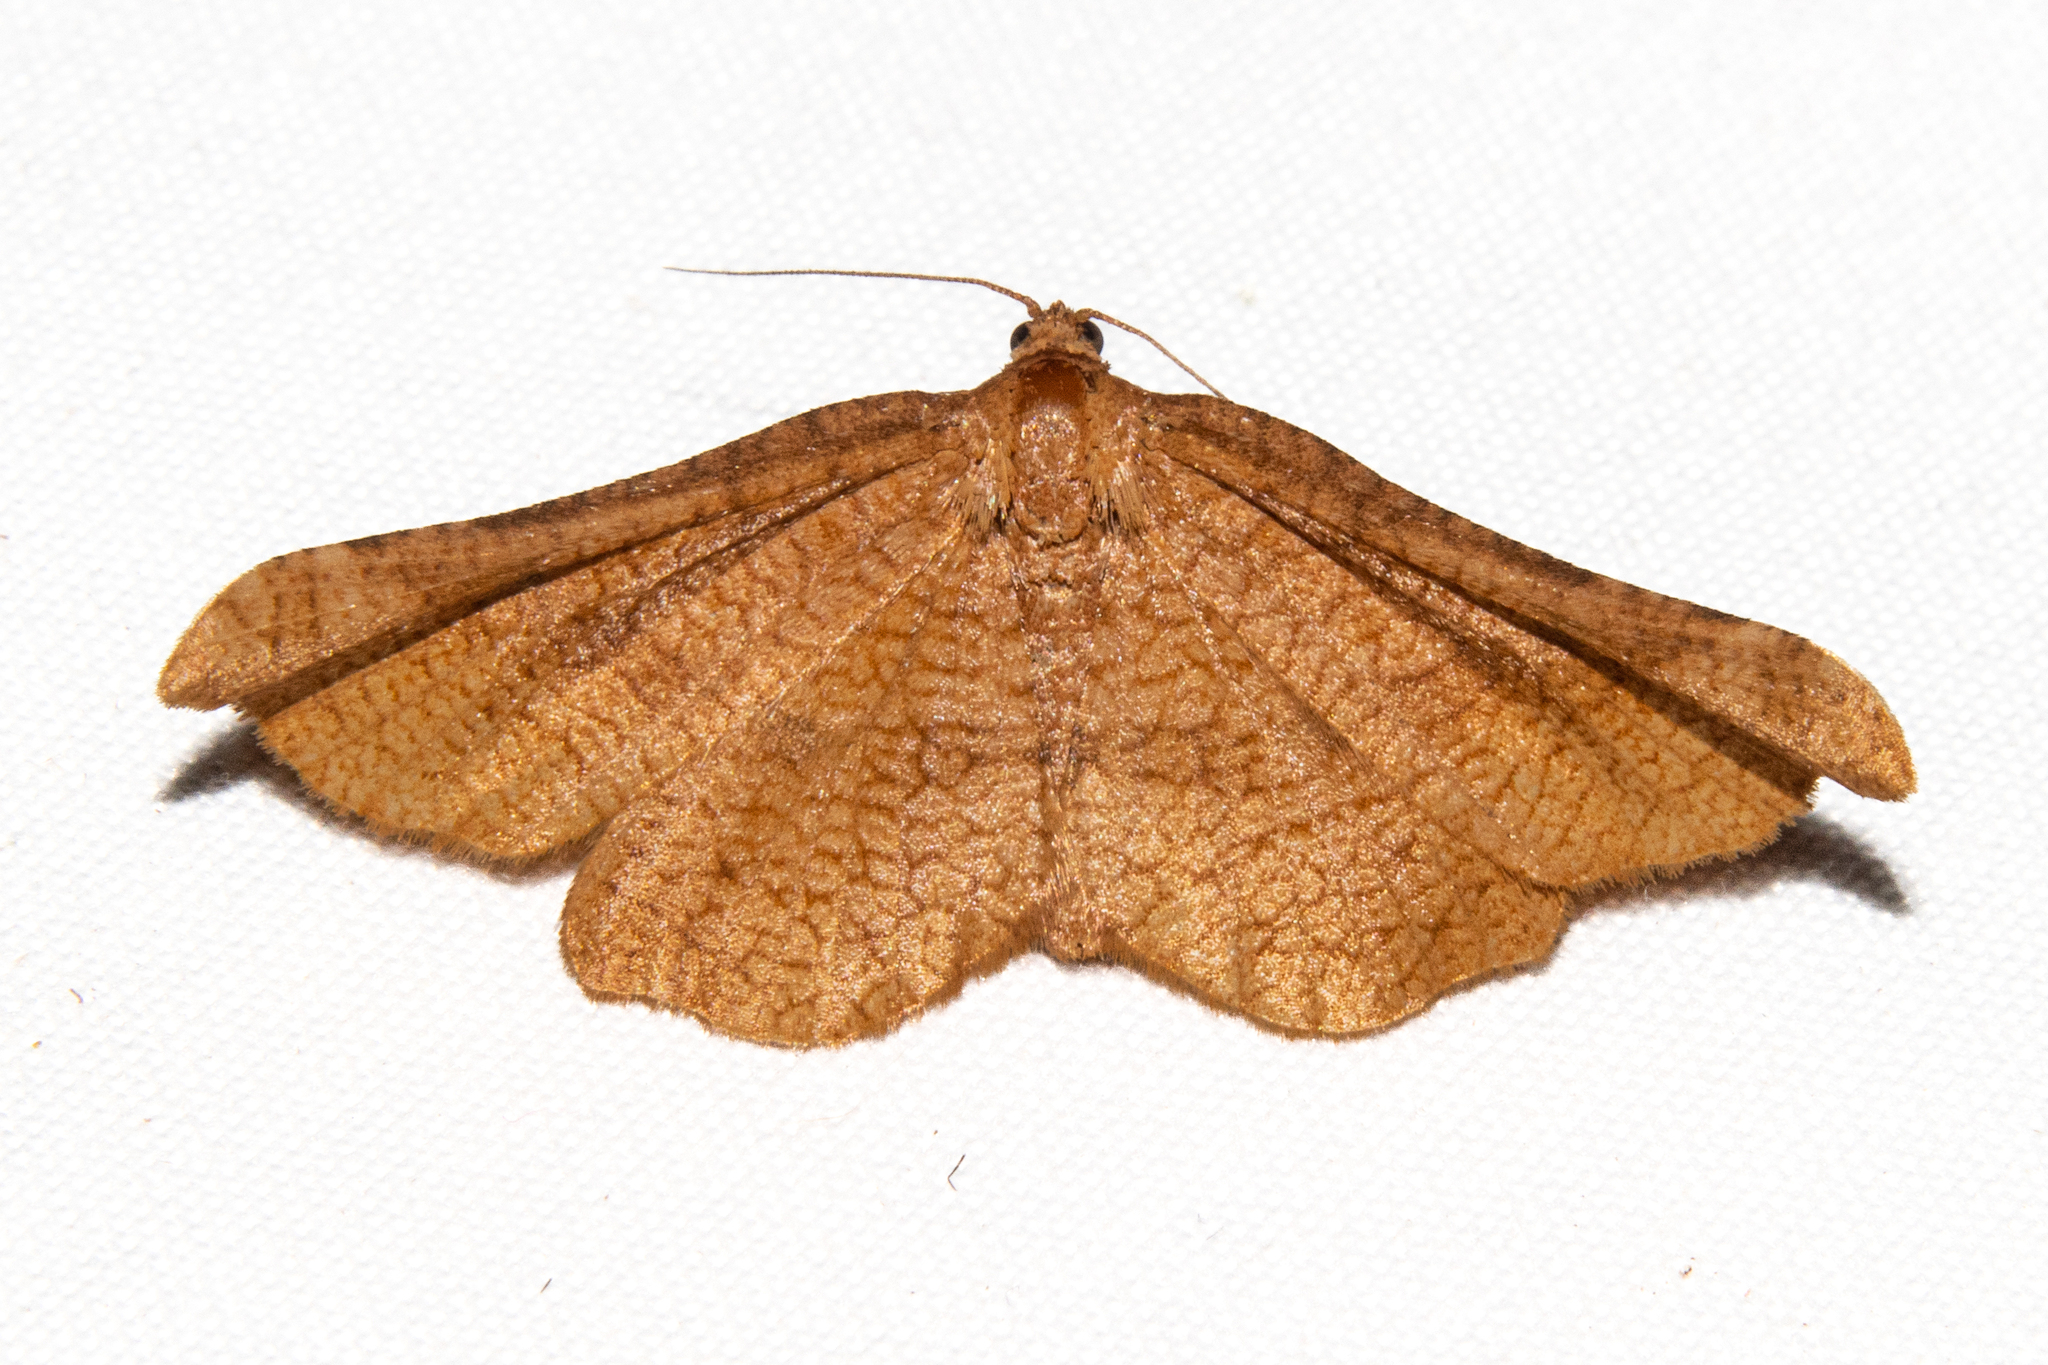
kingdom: Animalia
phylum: Arthropoda
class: Insecta
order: Lepidoptera
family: Thyrididae
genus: Morova
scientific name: Morova subfasciata
